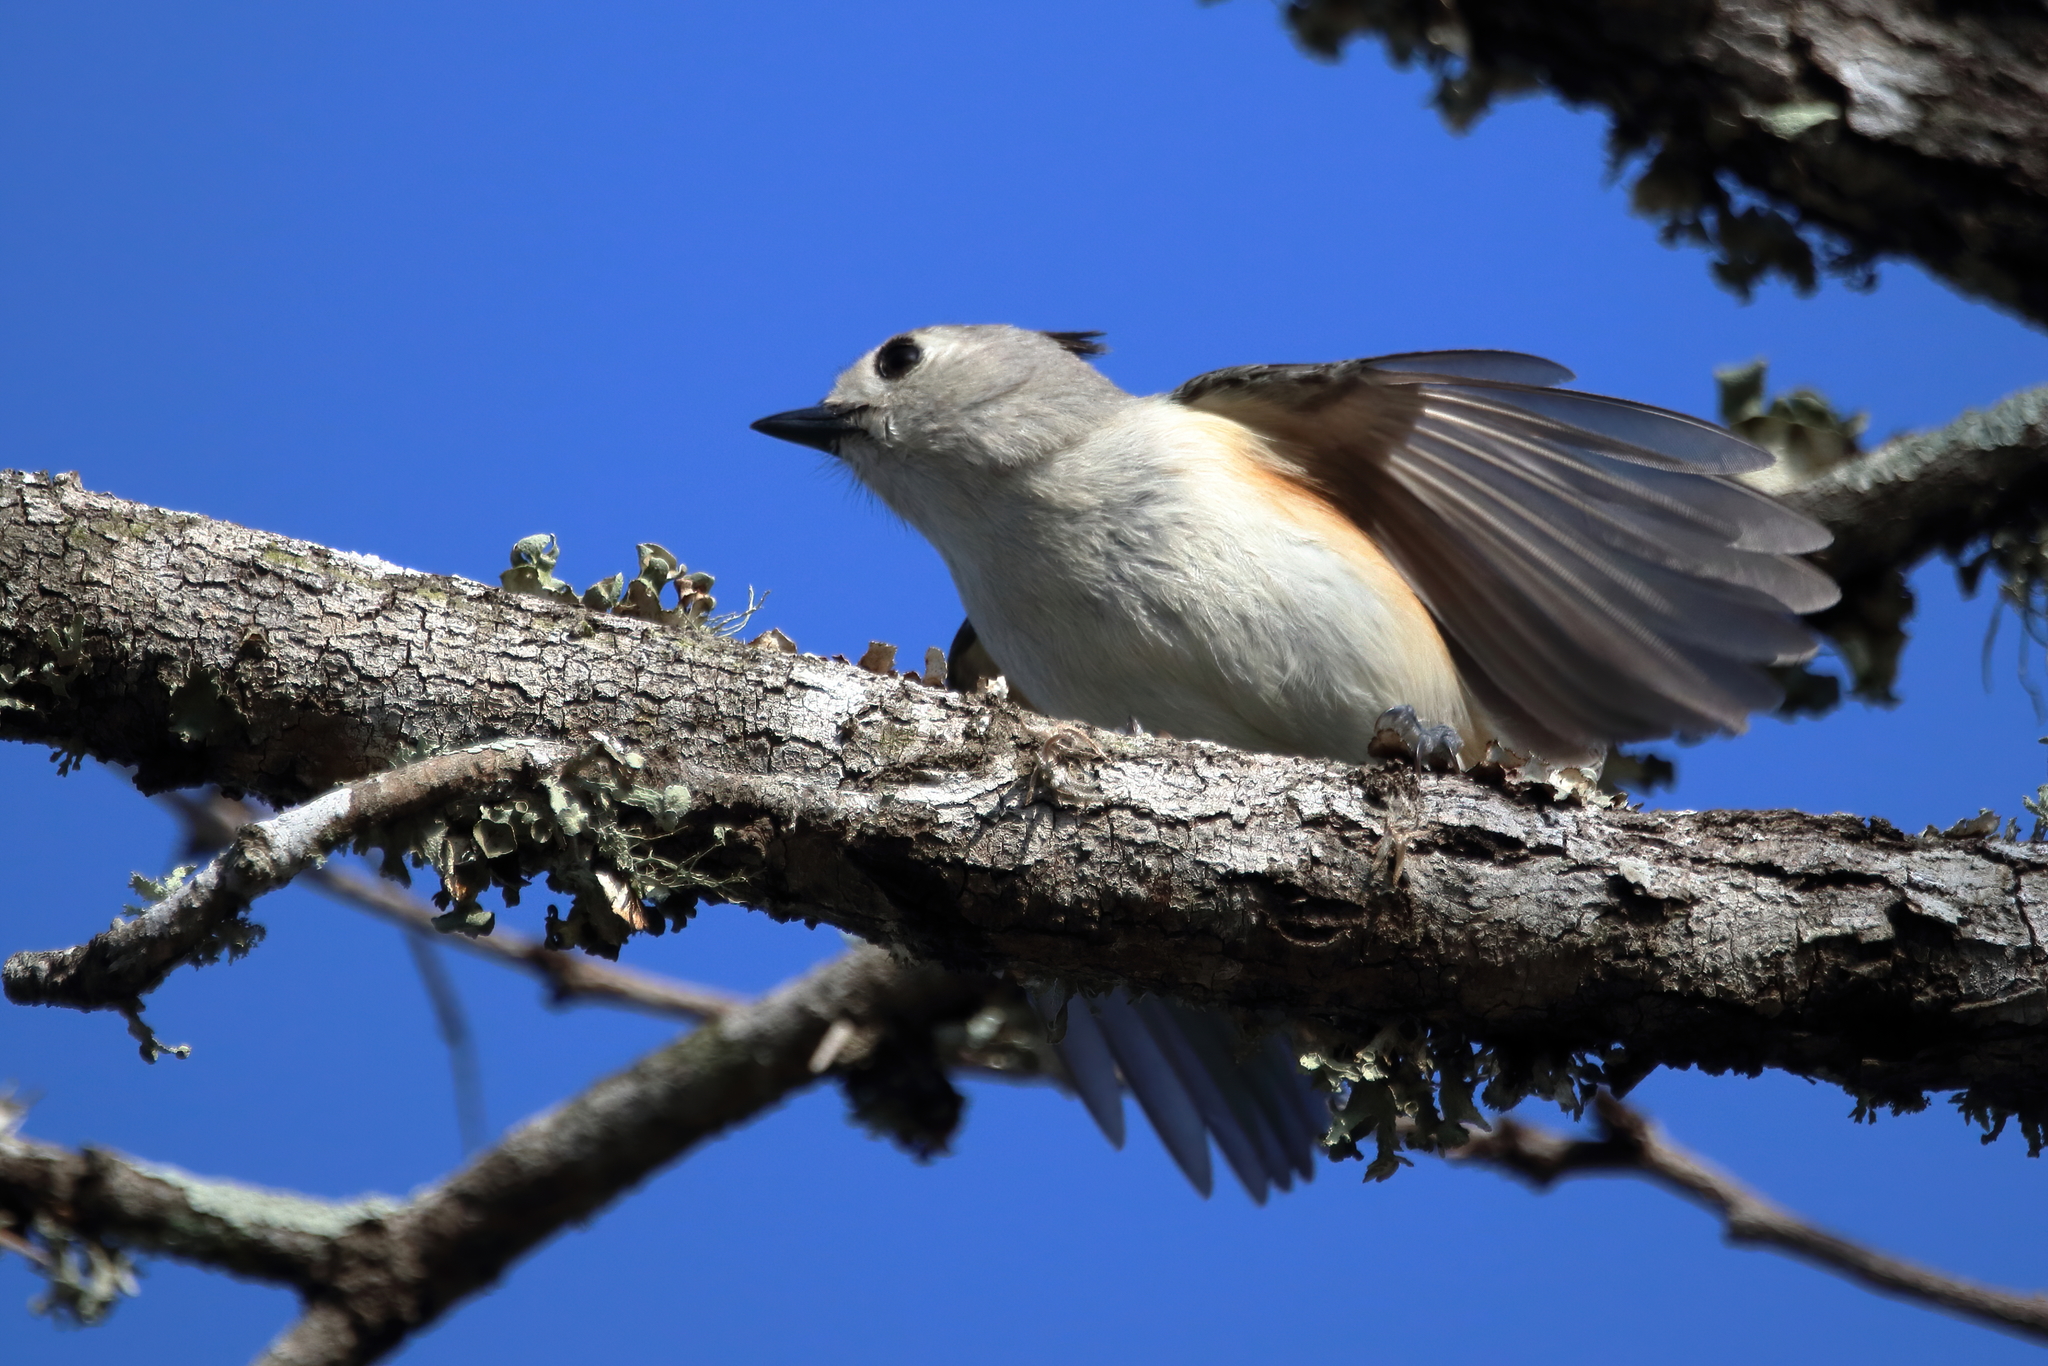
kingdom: Animalia
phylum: Chordata
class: Aves
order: Passeriformes
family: Paridae
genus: Baeolophus
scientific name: Baeolophus atricristatus
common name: Black-crested titmouse
